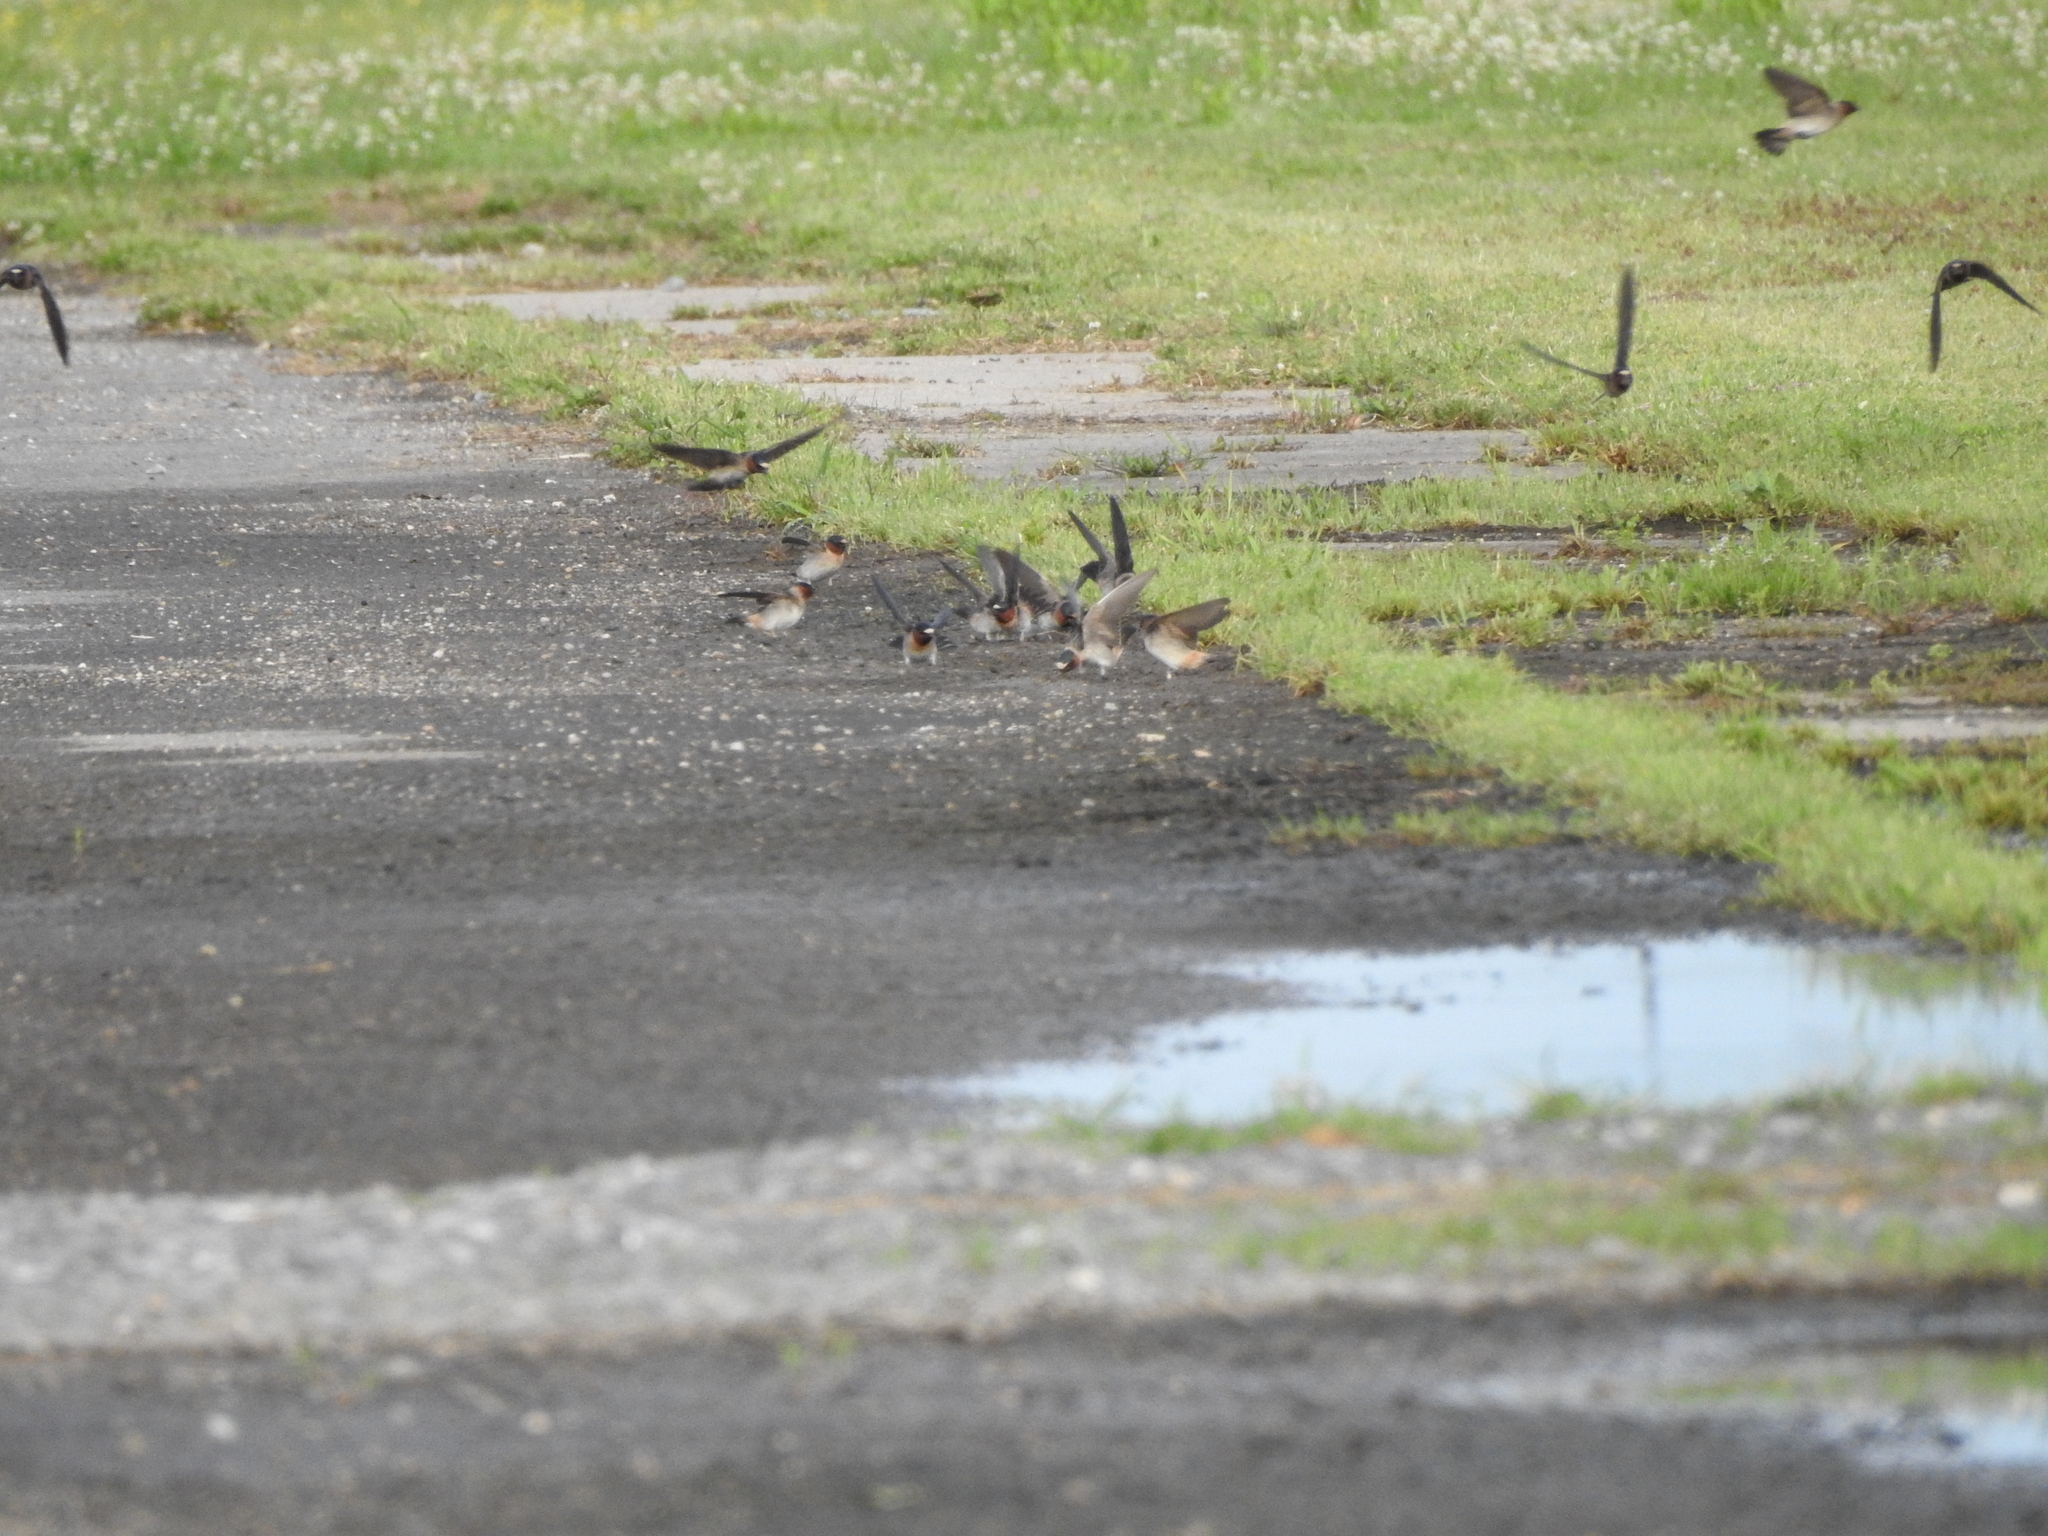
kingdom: Animalia
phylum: Chordata
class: Aves
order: Passeriformes
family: Hirundinidae
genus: Petrochelidon
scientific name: Petrochelidon pyrrhonota
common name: American cliff swallow
